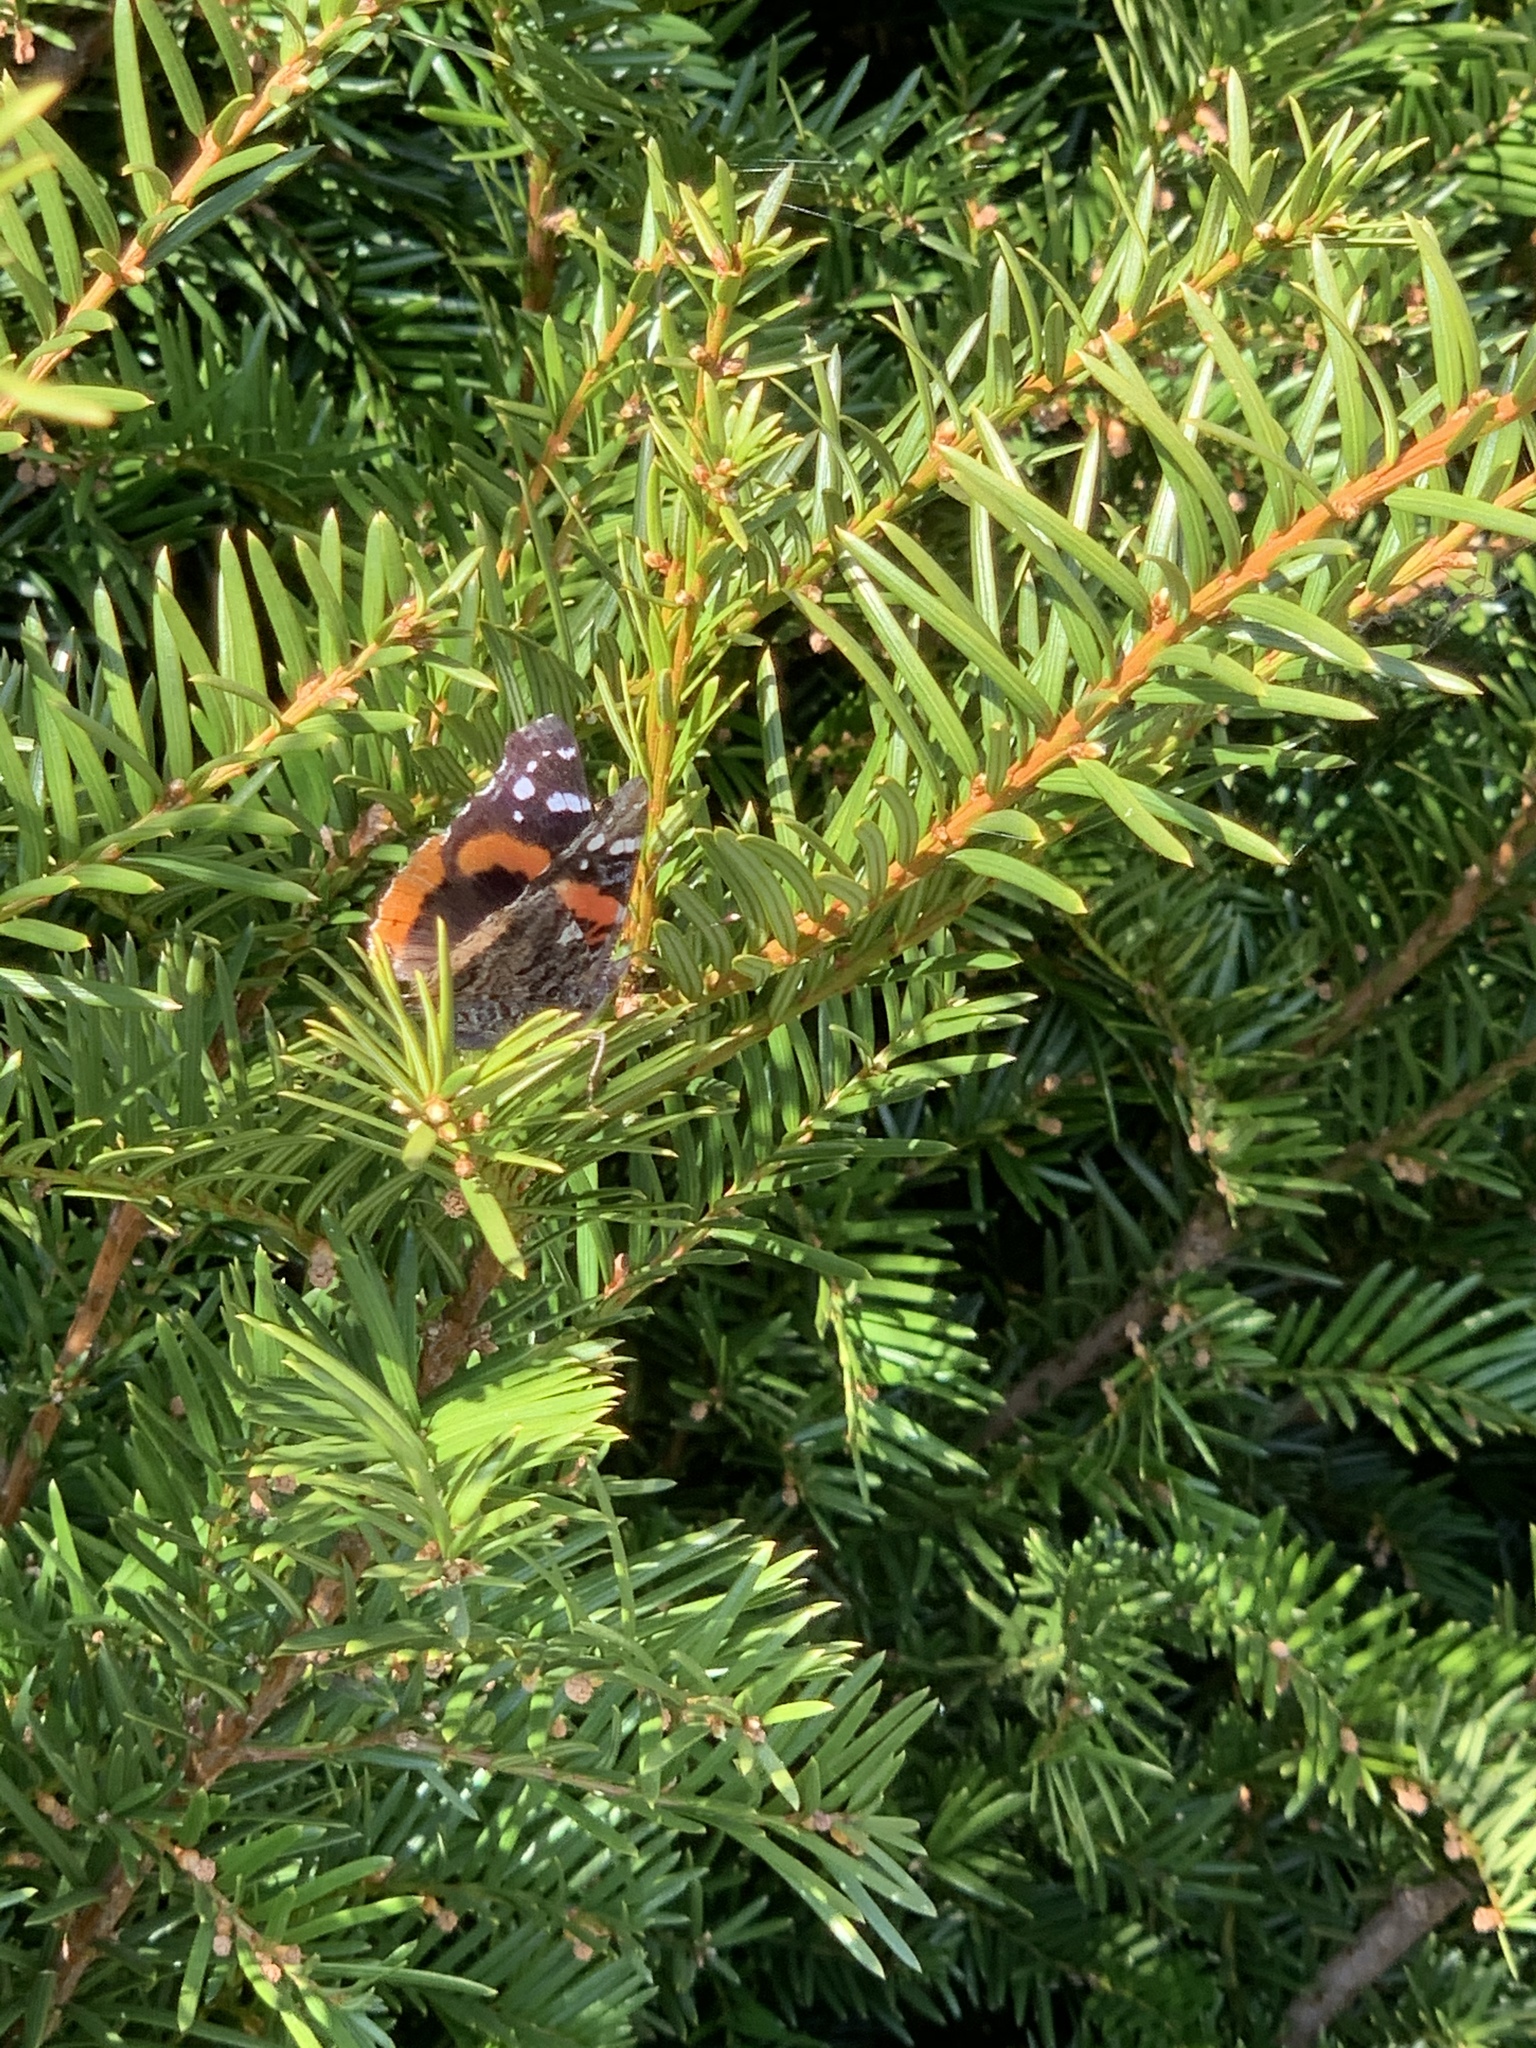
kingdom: Animalia
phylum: Arthropoda
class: Insecta
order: Lepidoptera
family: Nymphalidae
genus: Vanessa
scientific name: Vanessa atalanta
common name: Red admiral
